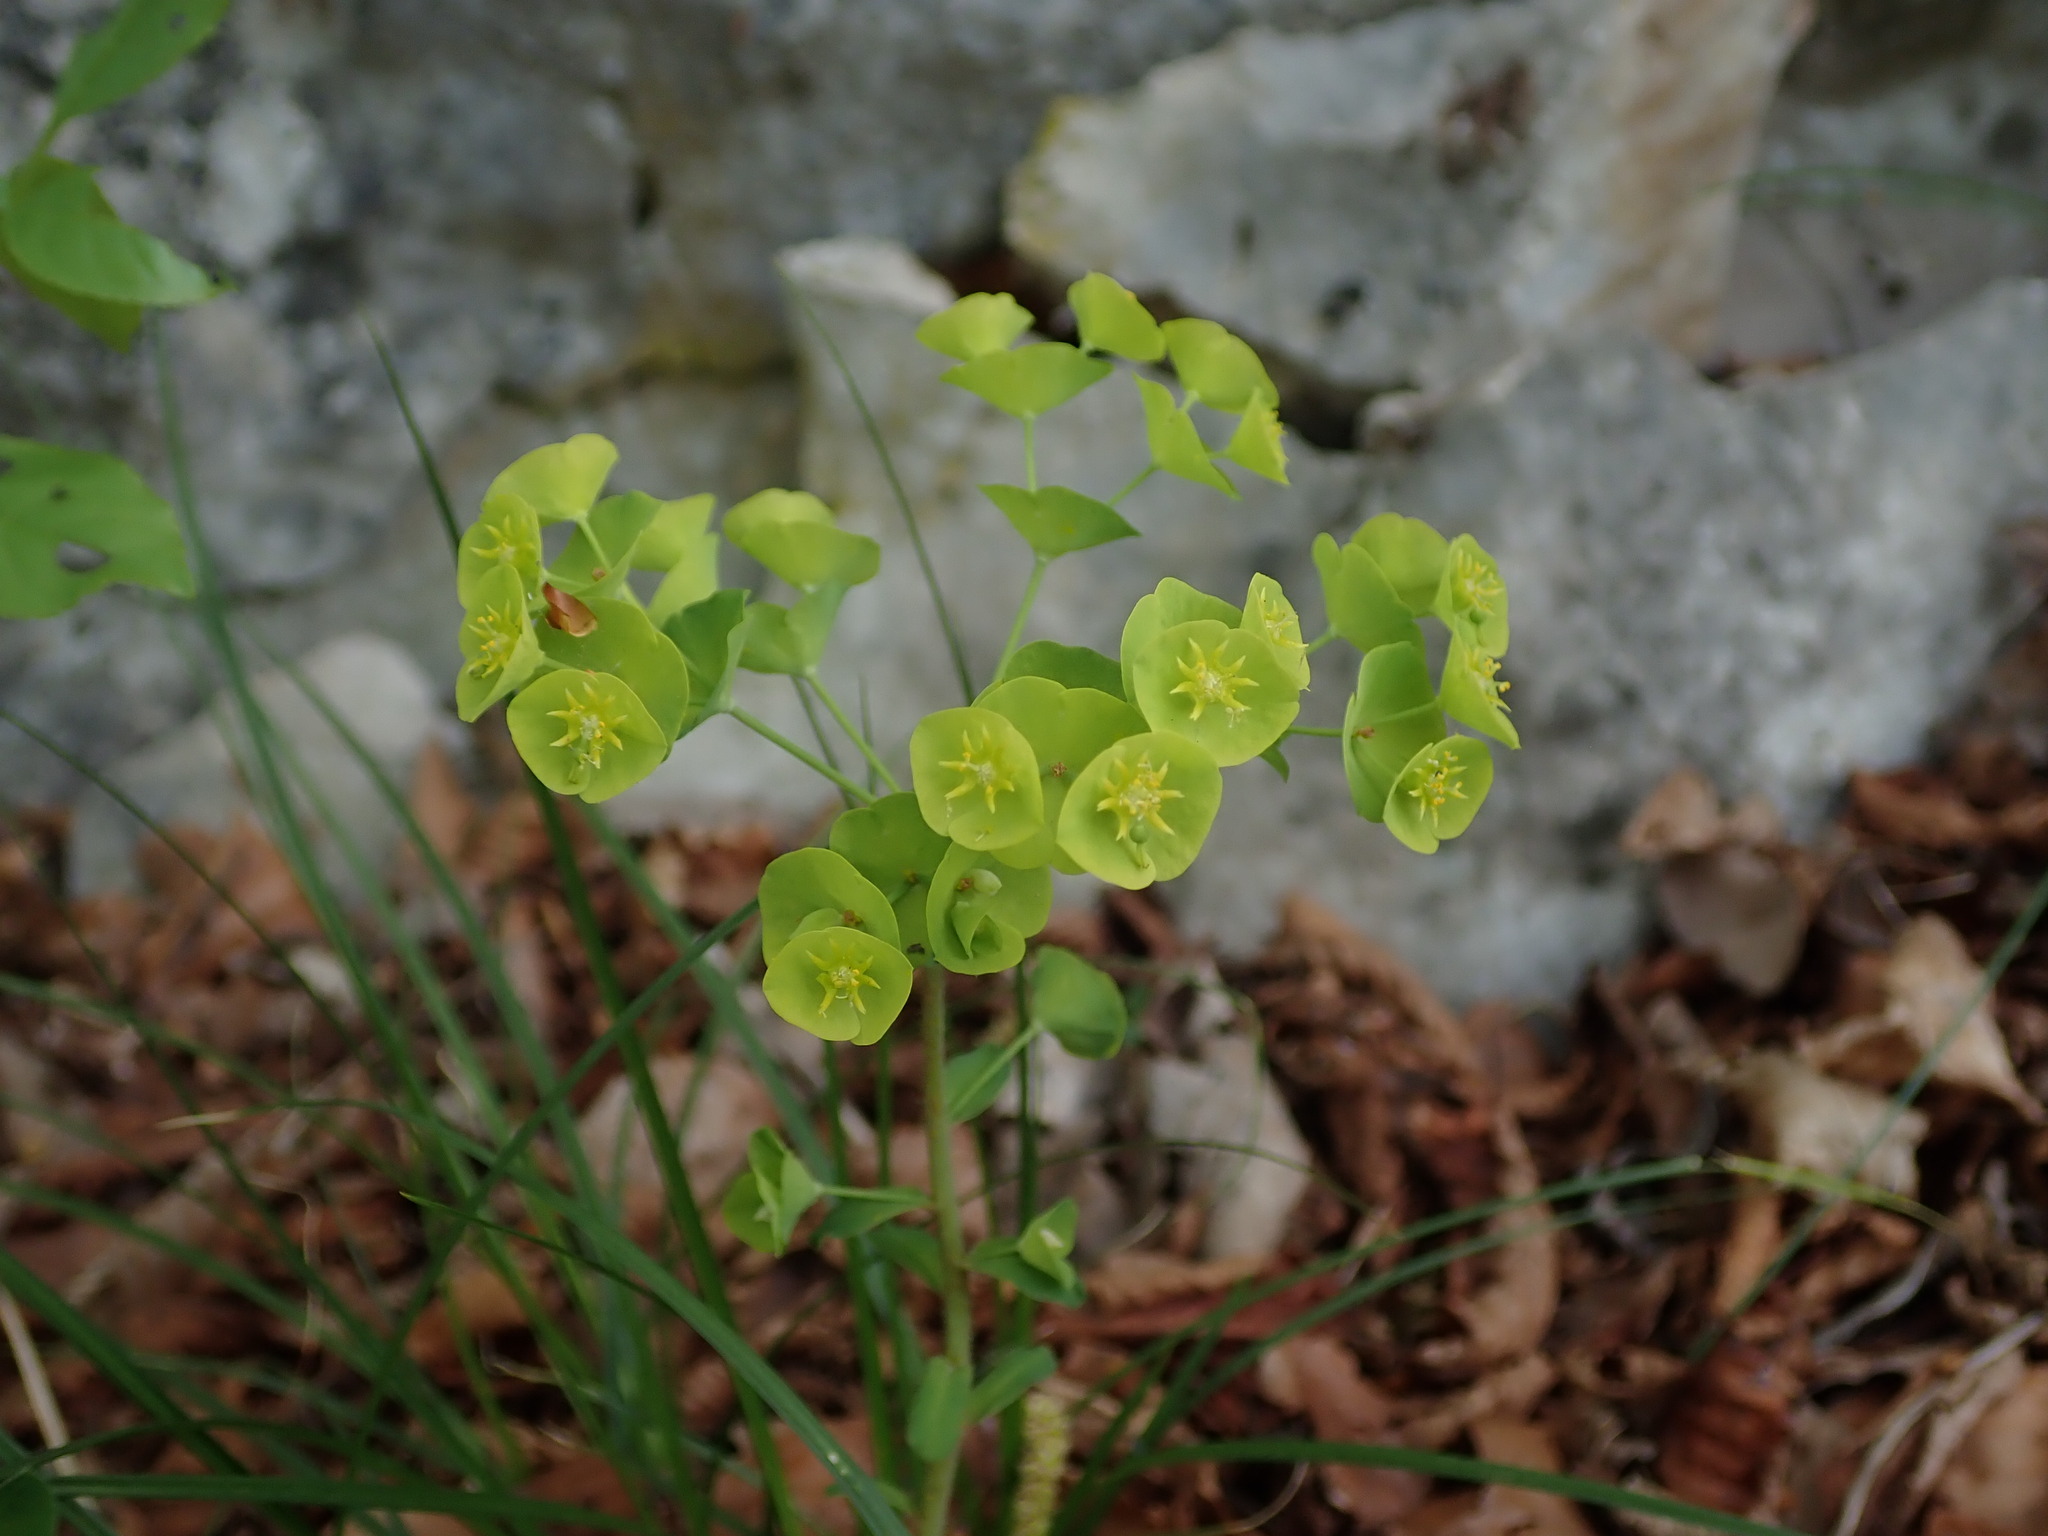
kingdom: Plantae
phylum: Tracheophyta
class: Magnoliopsida
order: Malpighiales
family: Euphorbiaceae
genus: Euphorbia
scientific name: Euphorbia amygdaloides
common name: Wood spurge
